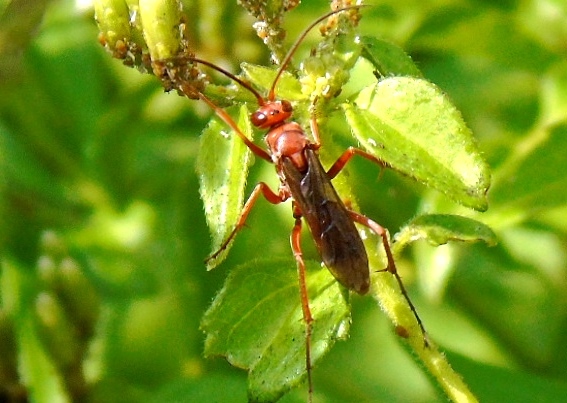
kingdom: Animalia
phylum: Arthropoda
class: Insecta
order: Hymenoptera
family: Pompilidae
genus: Tachypompilus
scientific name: Tachypompilus
